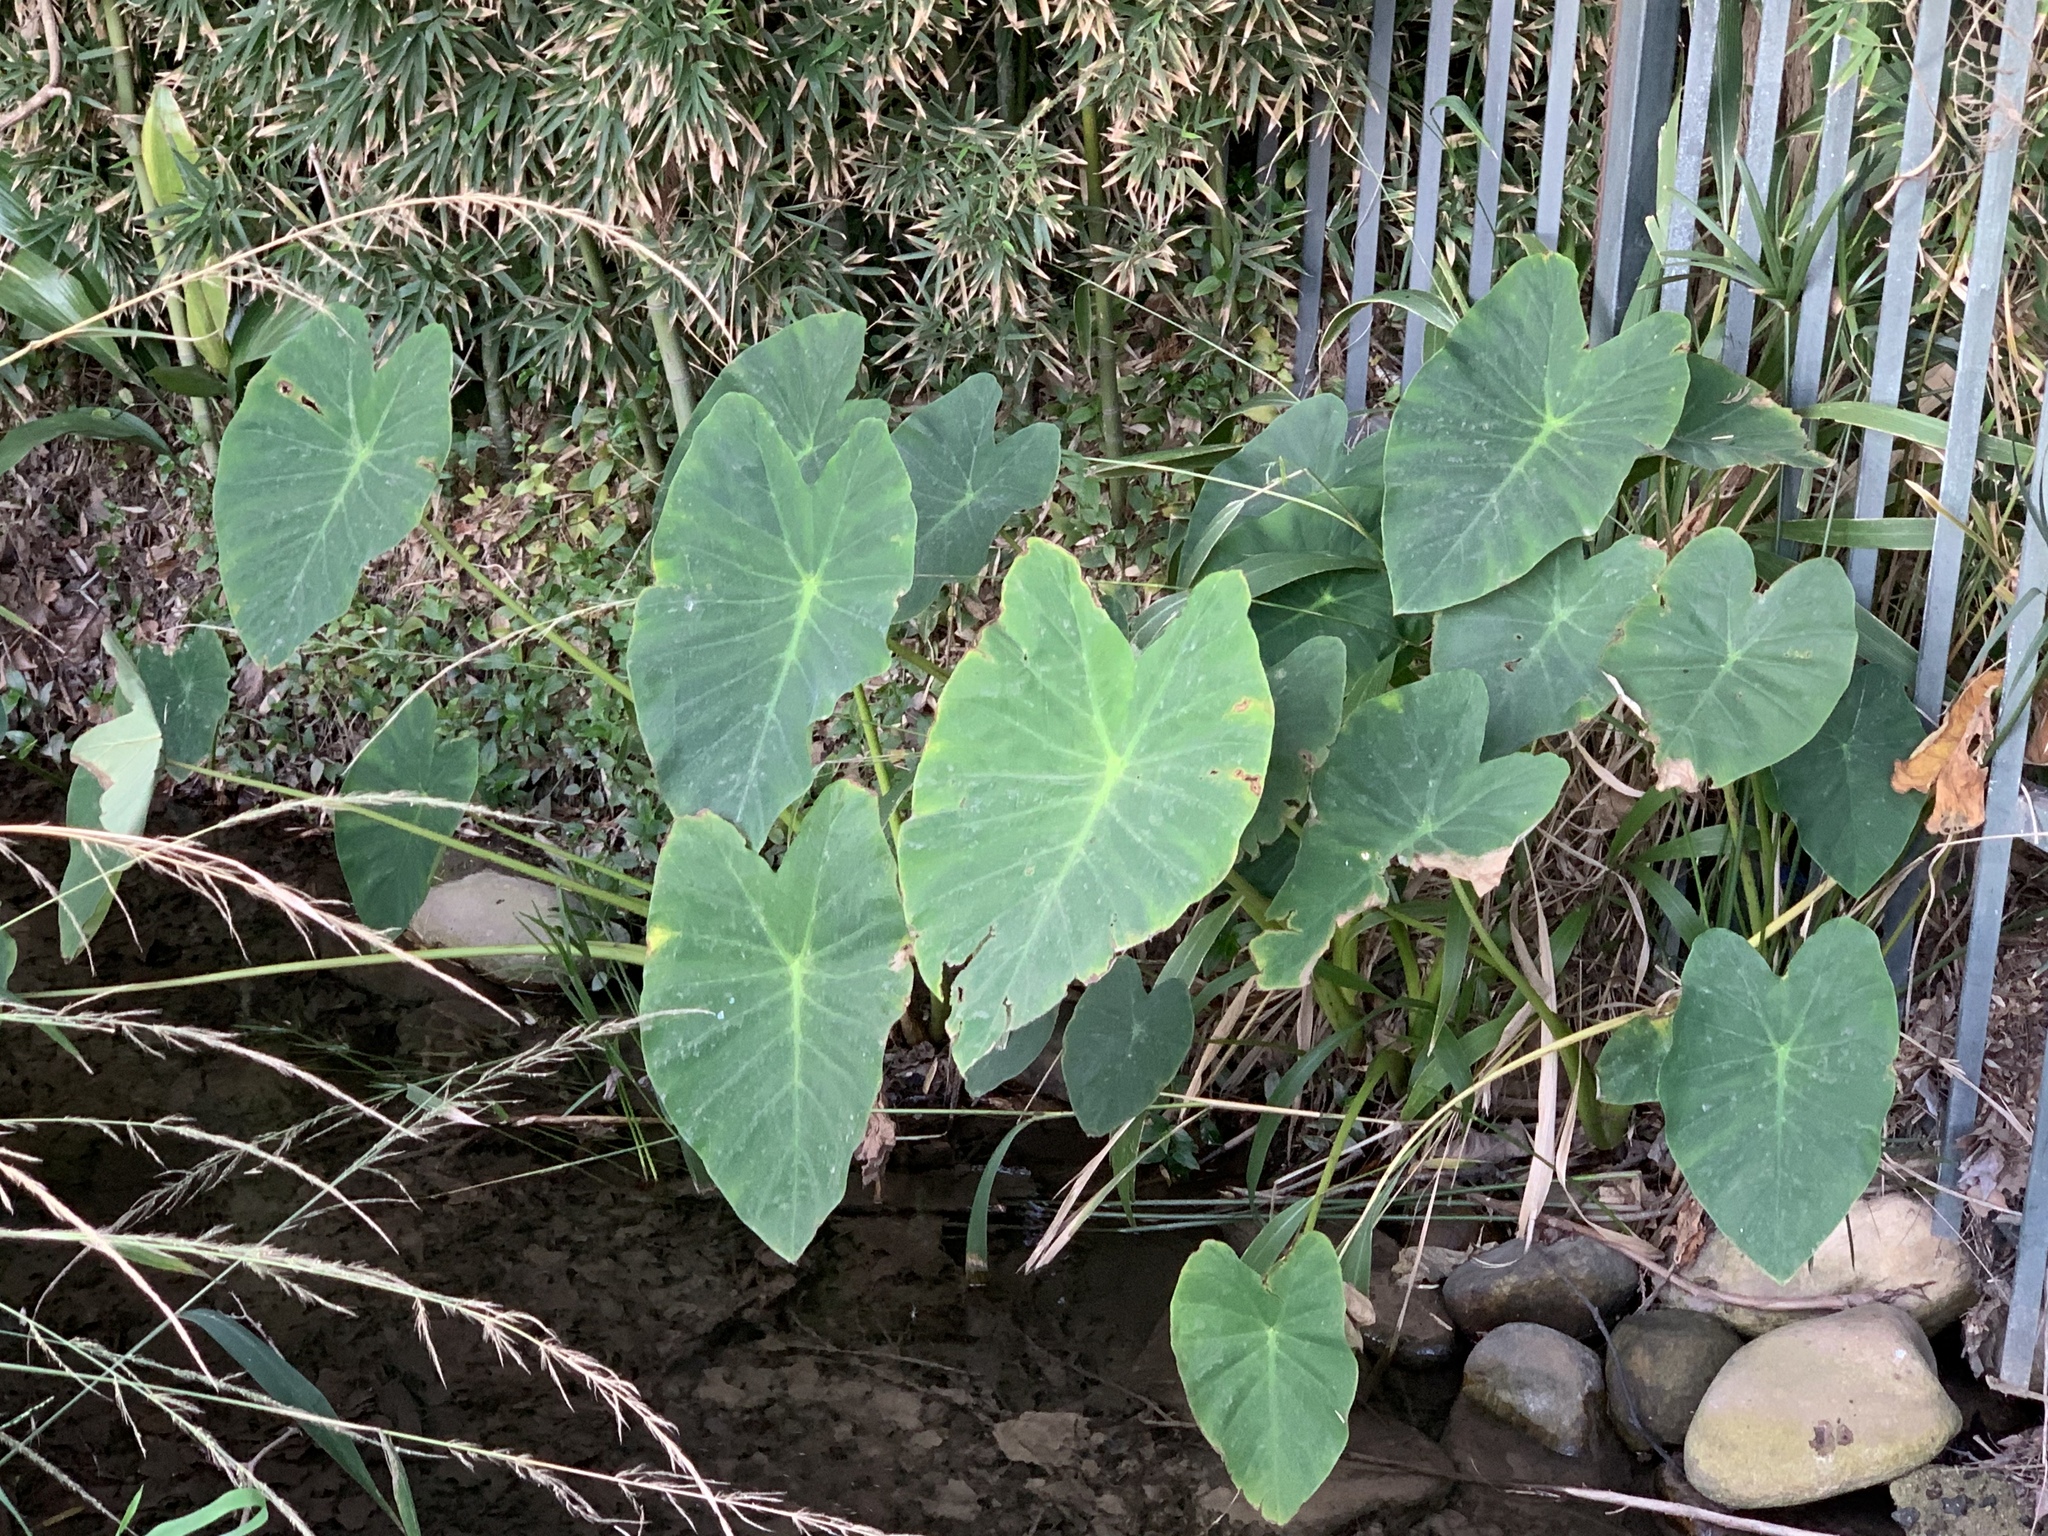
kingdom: Plantae
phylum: Tracheophyta
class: Liliopsida
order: Alismatales
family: Araceae
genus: Colocasia
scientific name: Colocasia esculenta
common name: Taro
